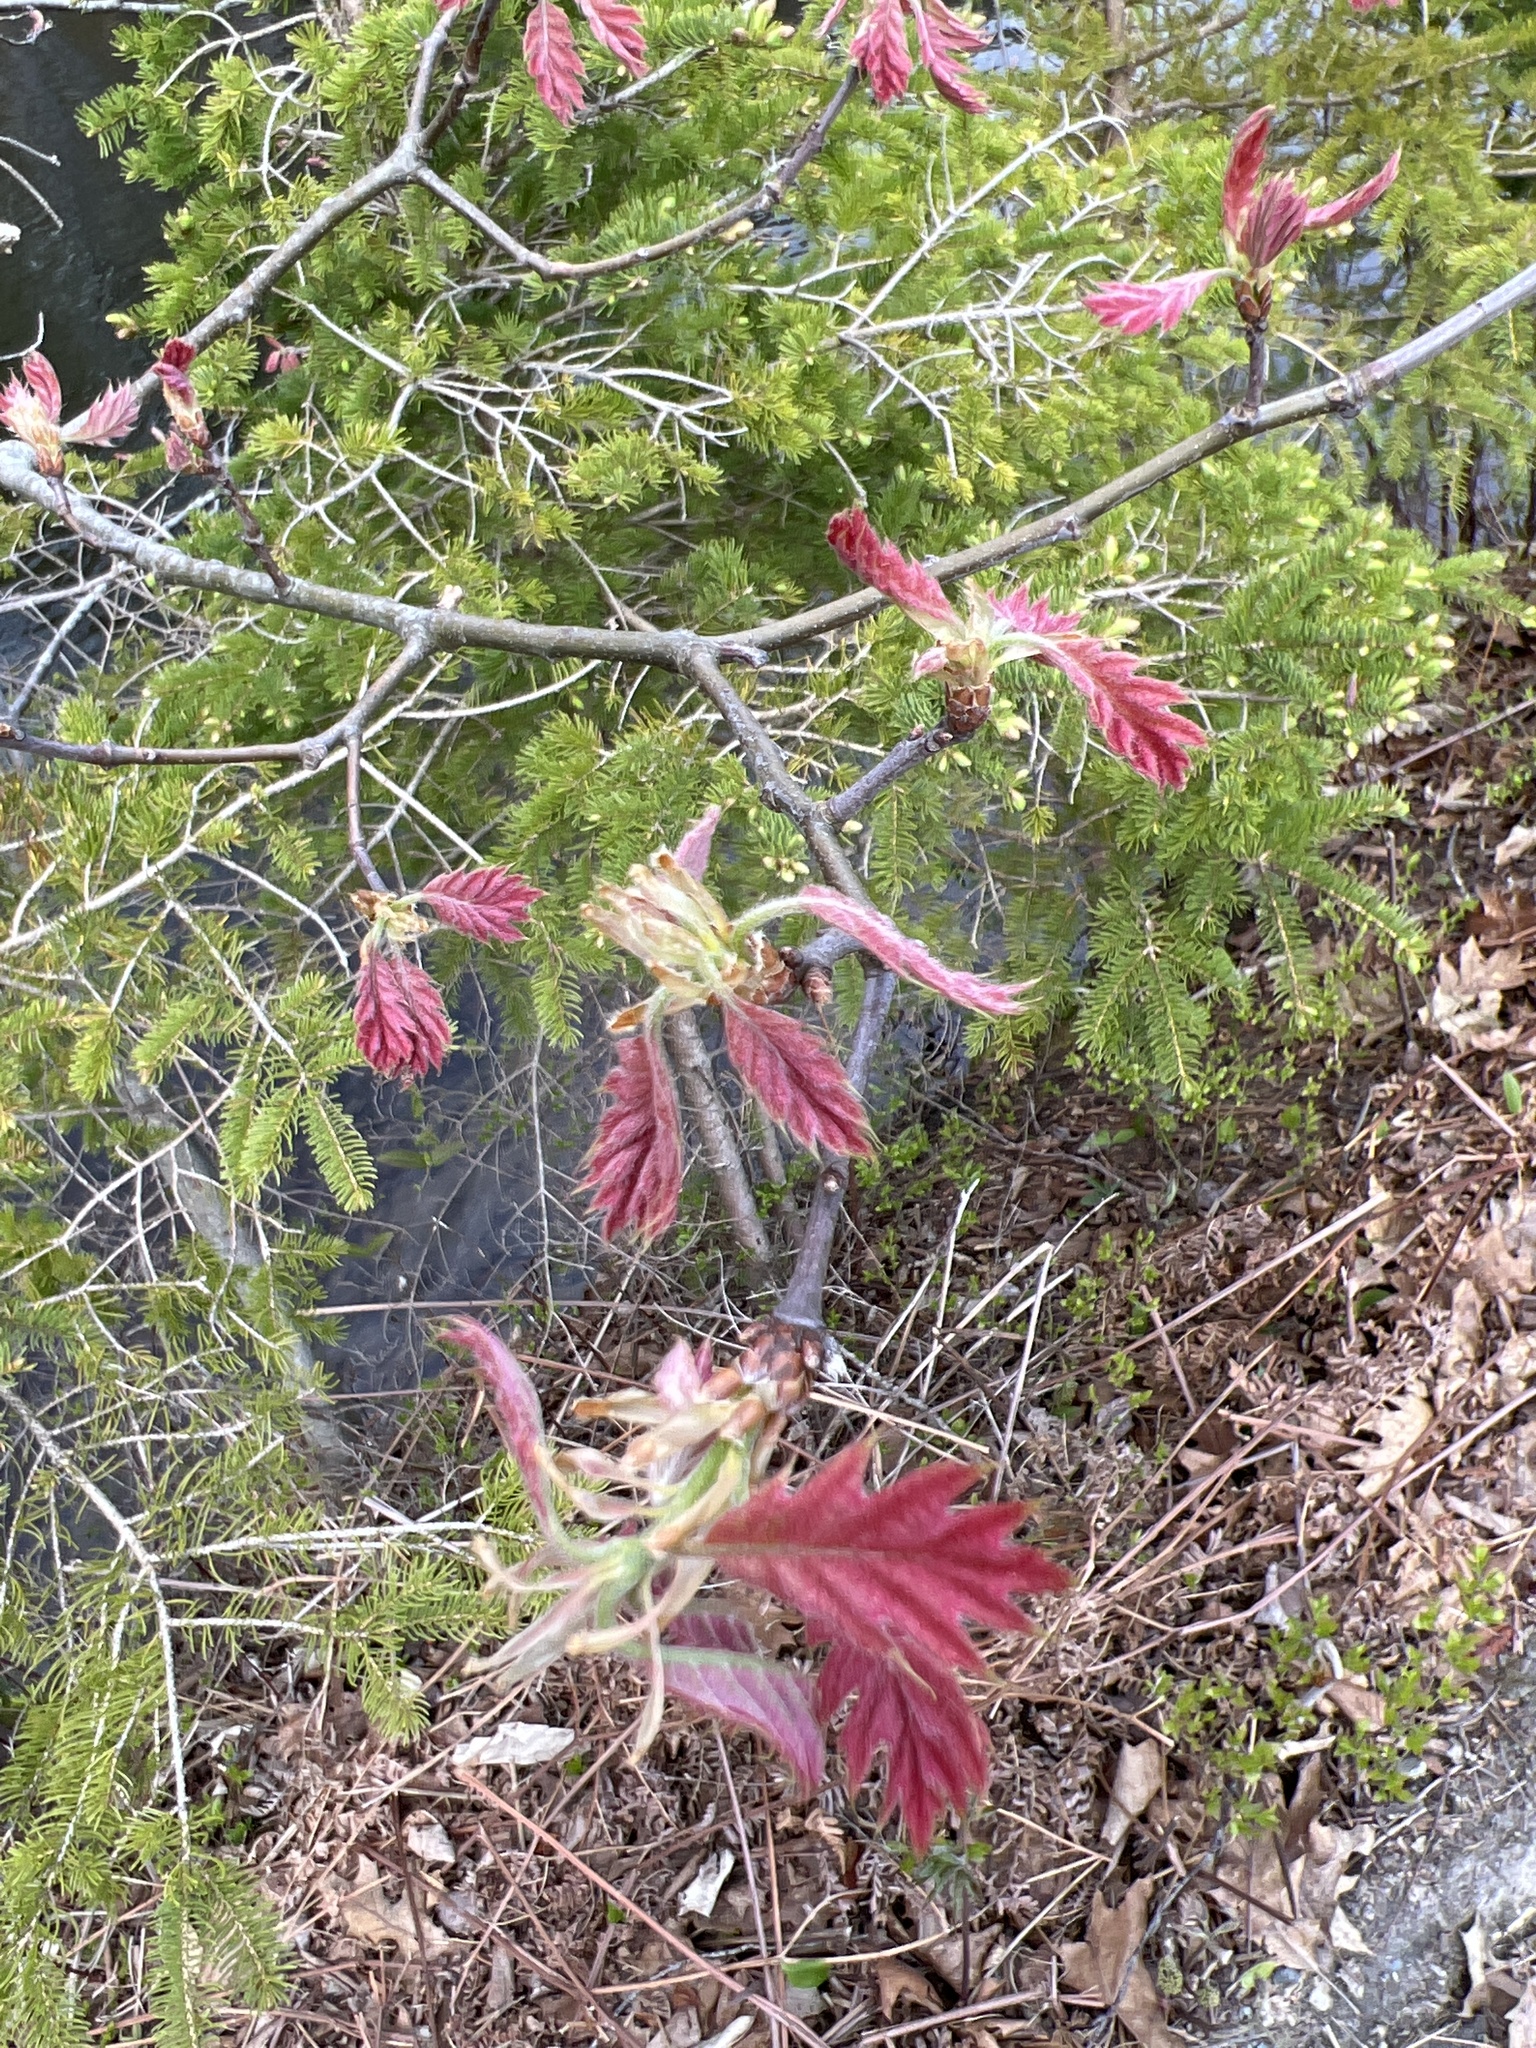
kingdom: Plantae
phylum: Tracheophyta
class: Magnoliopsida
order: Fagales
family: Fagaceae
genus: Quercus
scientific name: Quercus rubra
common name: Red oak
